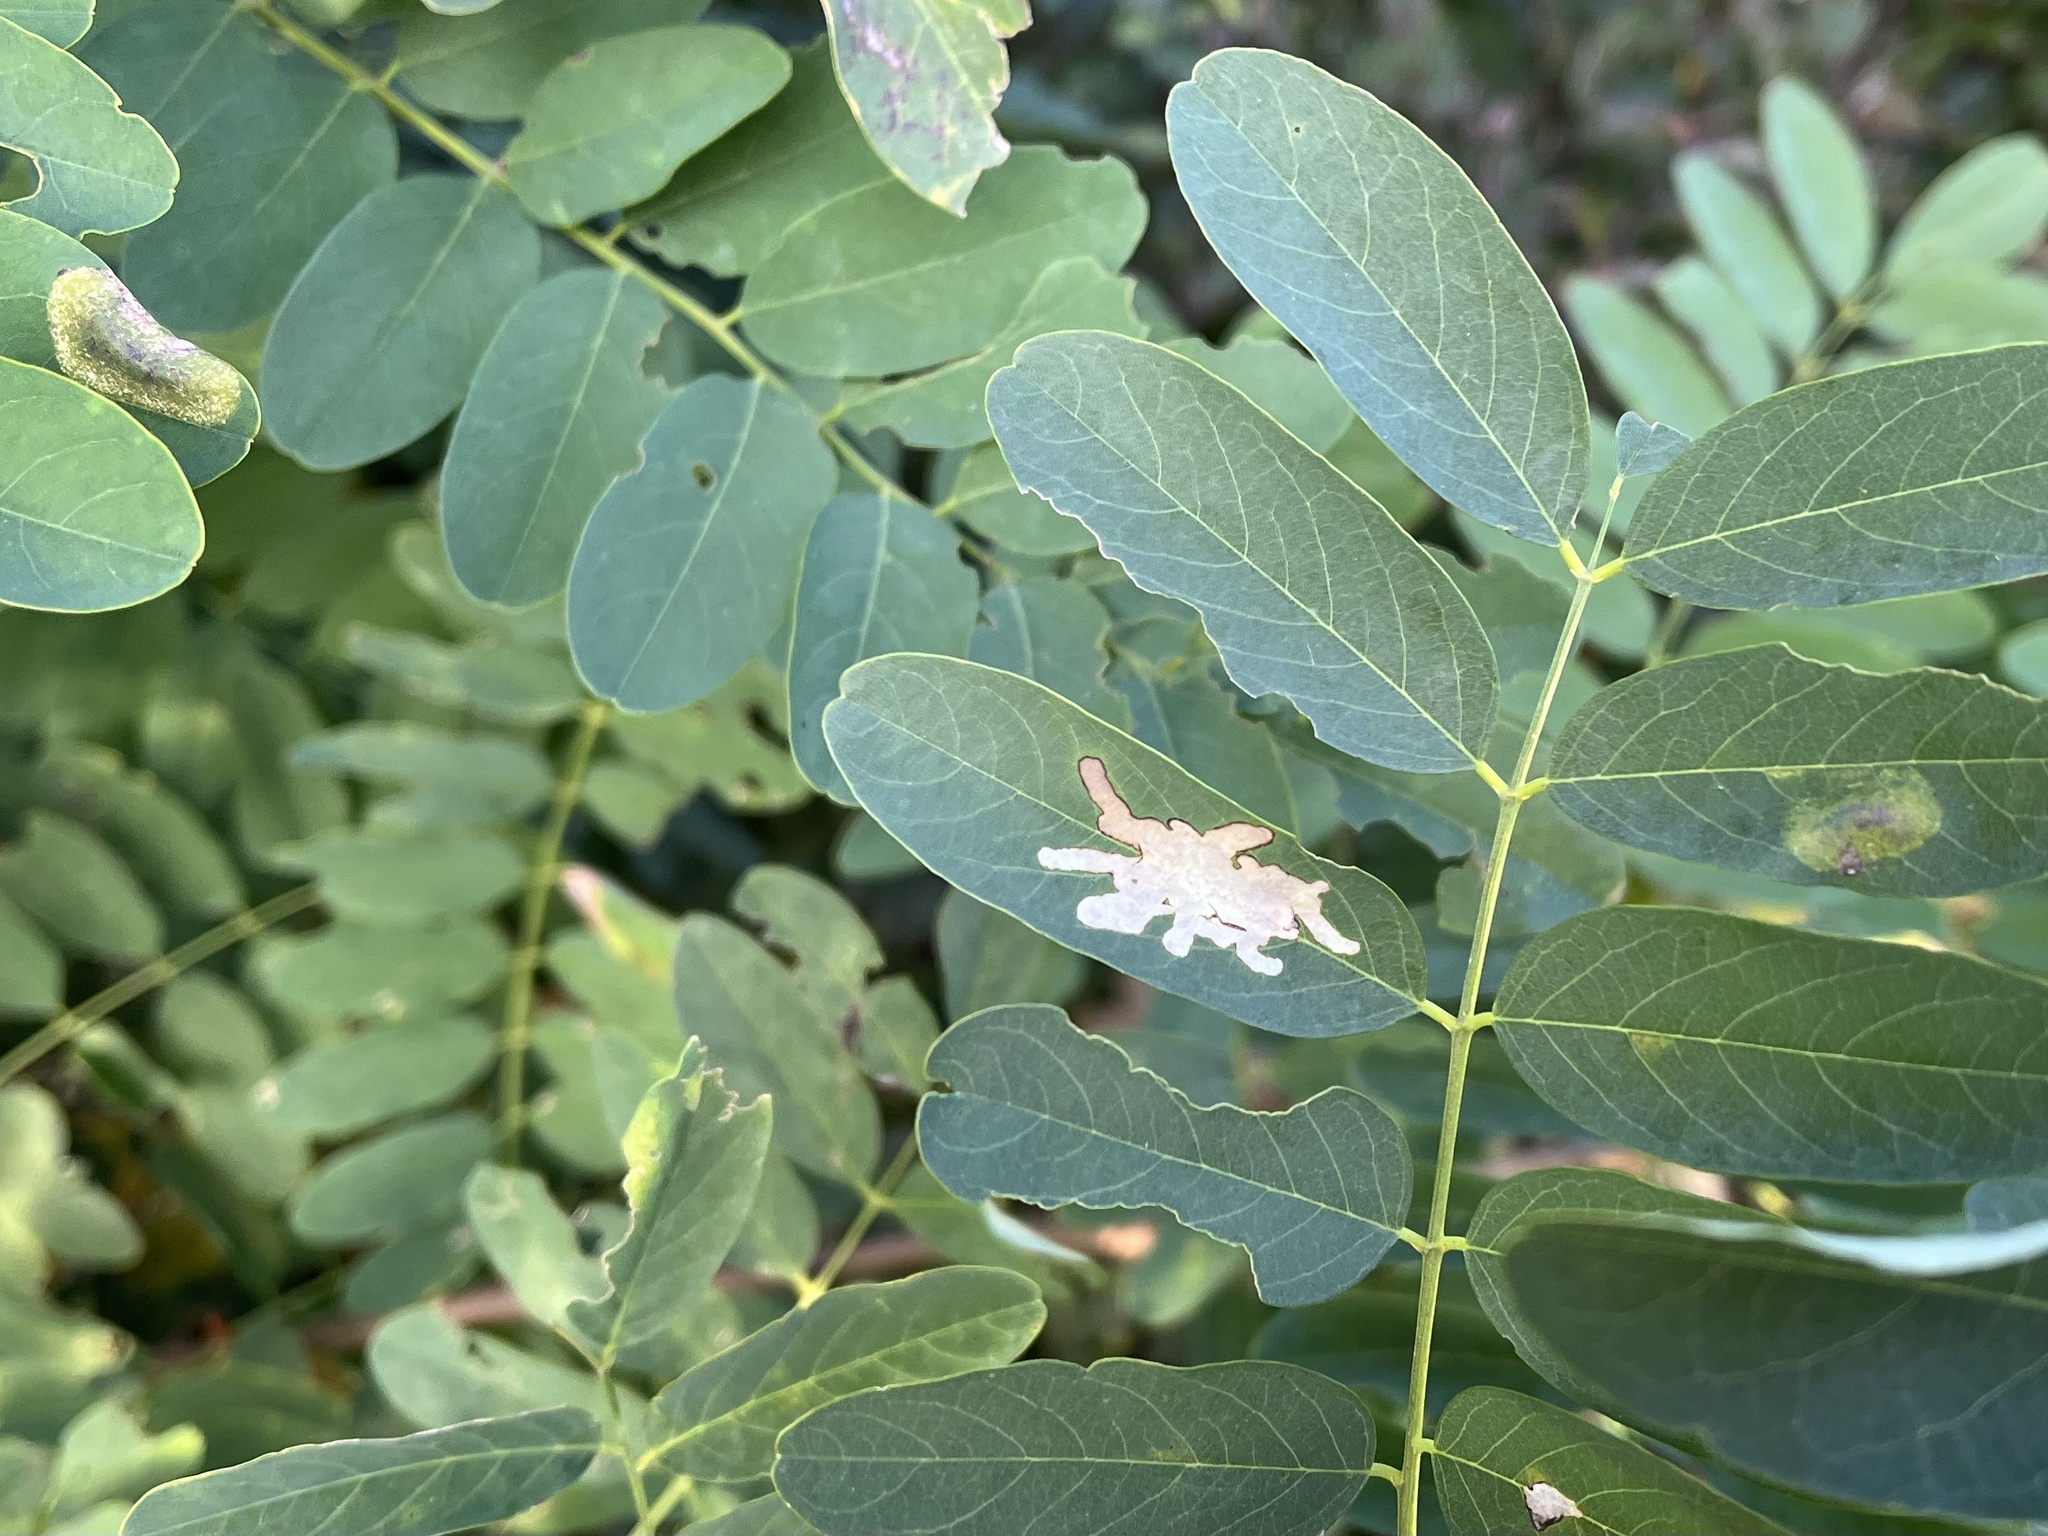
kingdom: Animalia
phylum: Arthropoda
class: Insecta
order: Lepidoptera
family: Gracillariidae
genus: Parectopa
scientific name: Parectopa robiniella
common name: Locust digitate leafminer
